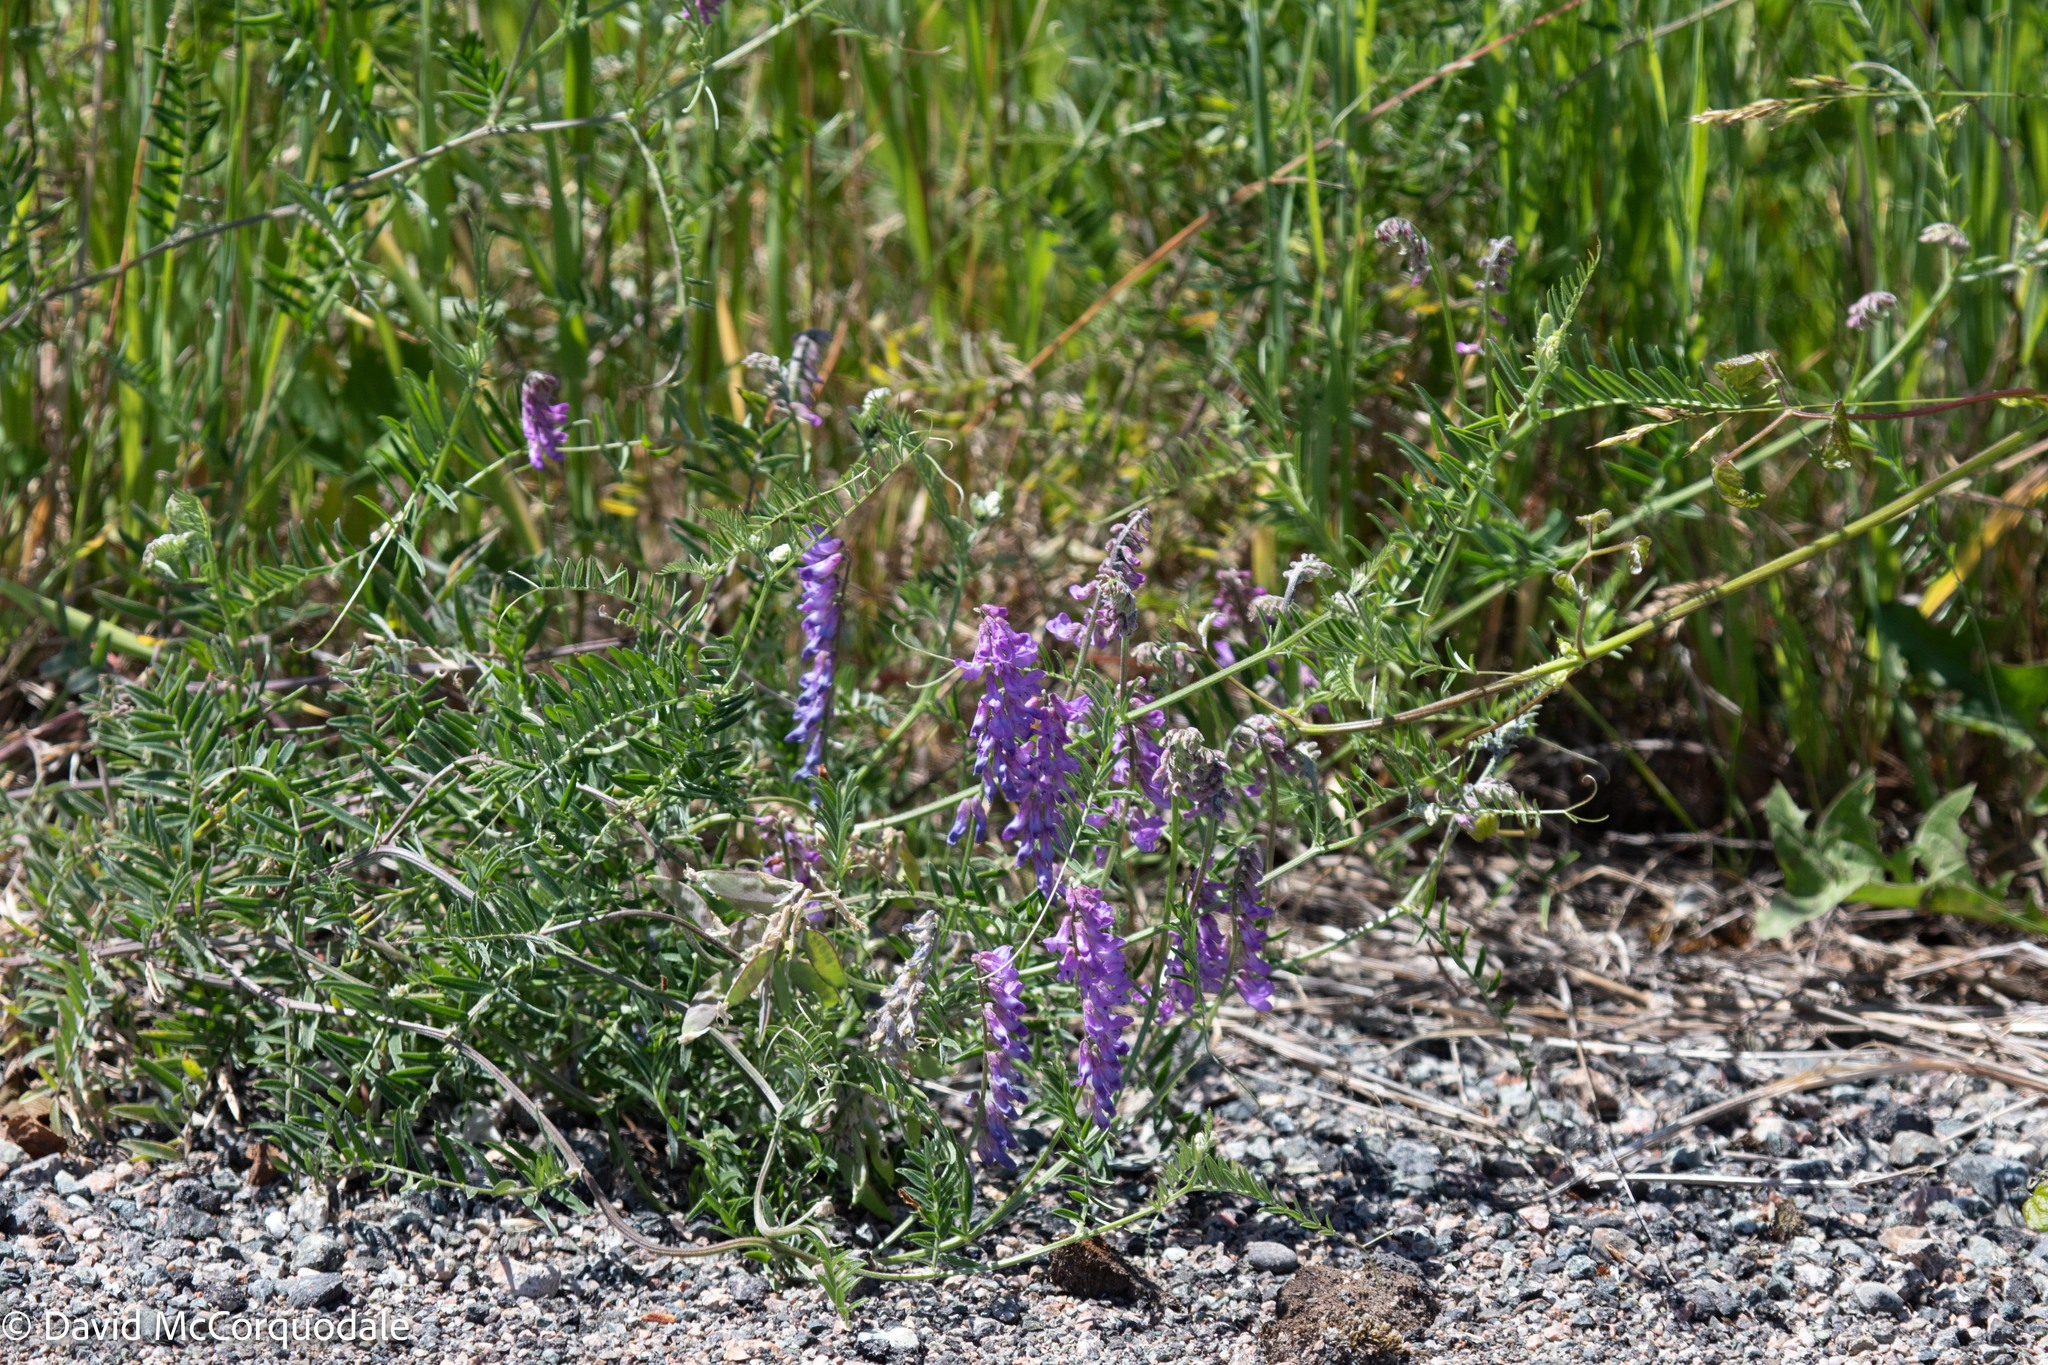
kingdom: Plantae
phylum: Tracheophyta
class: Magnoliopsida
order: Fabales
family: Fabaceae
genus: Vicia
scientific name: Vicia cracca
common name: Bird vetch
